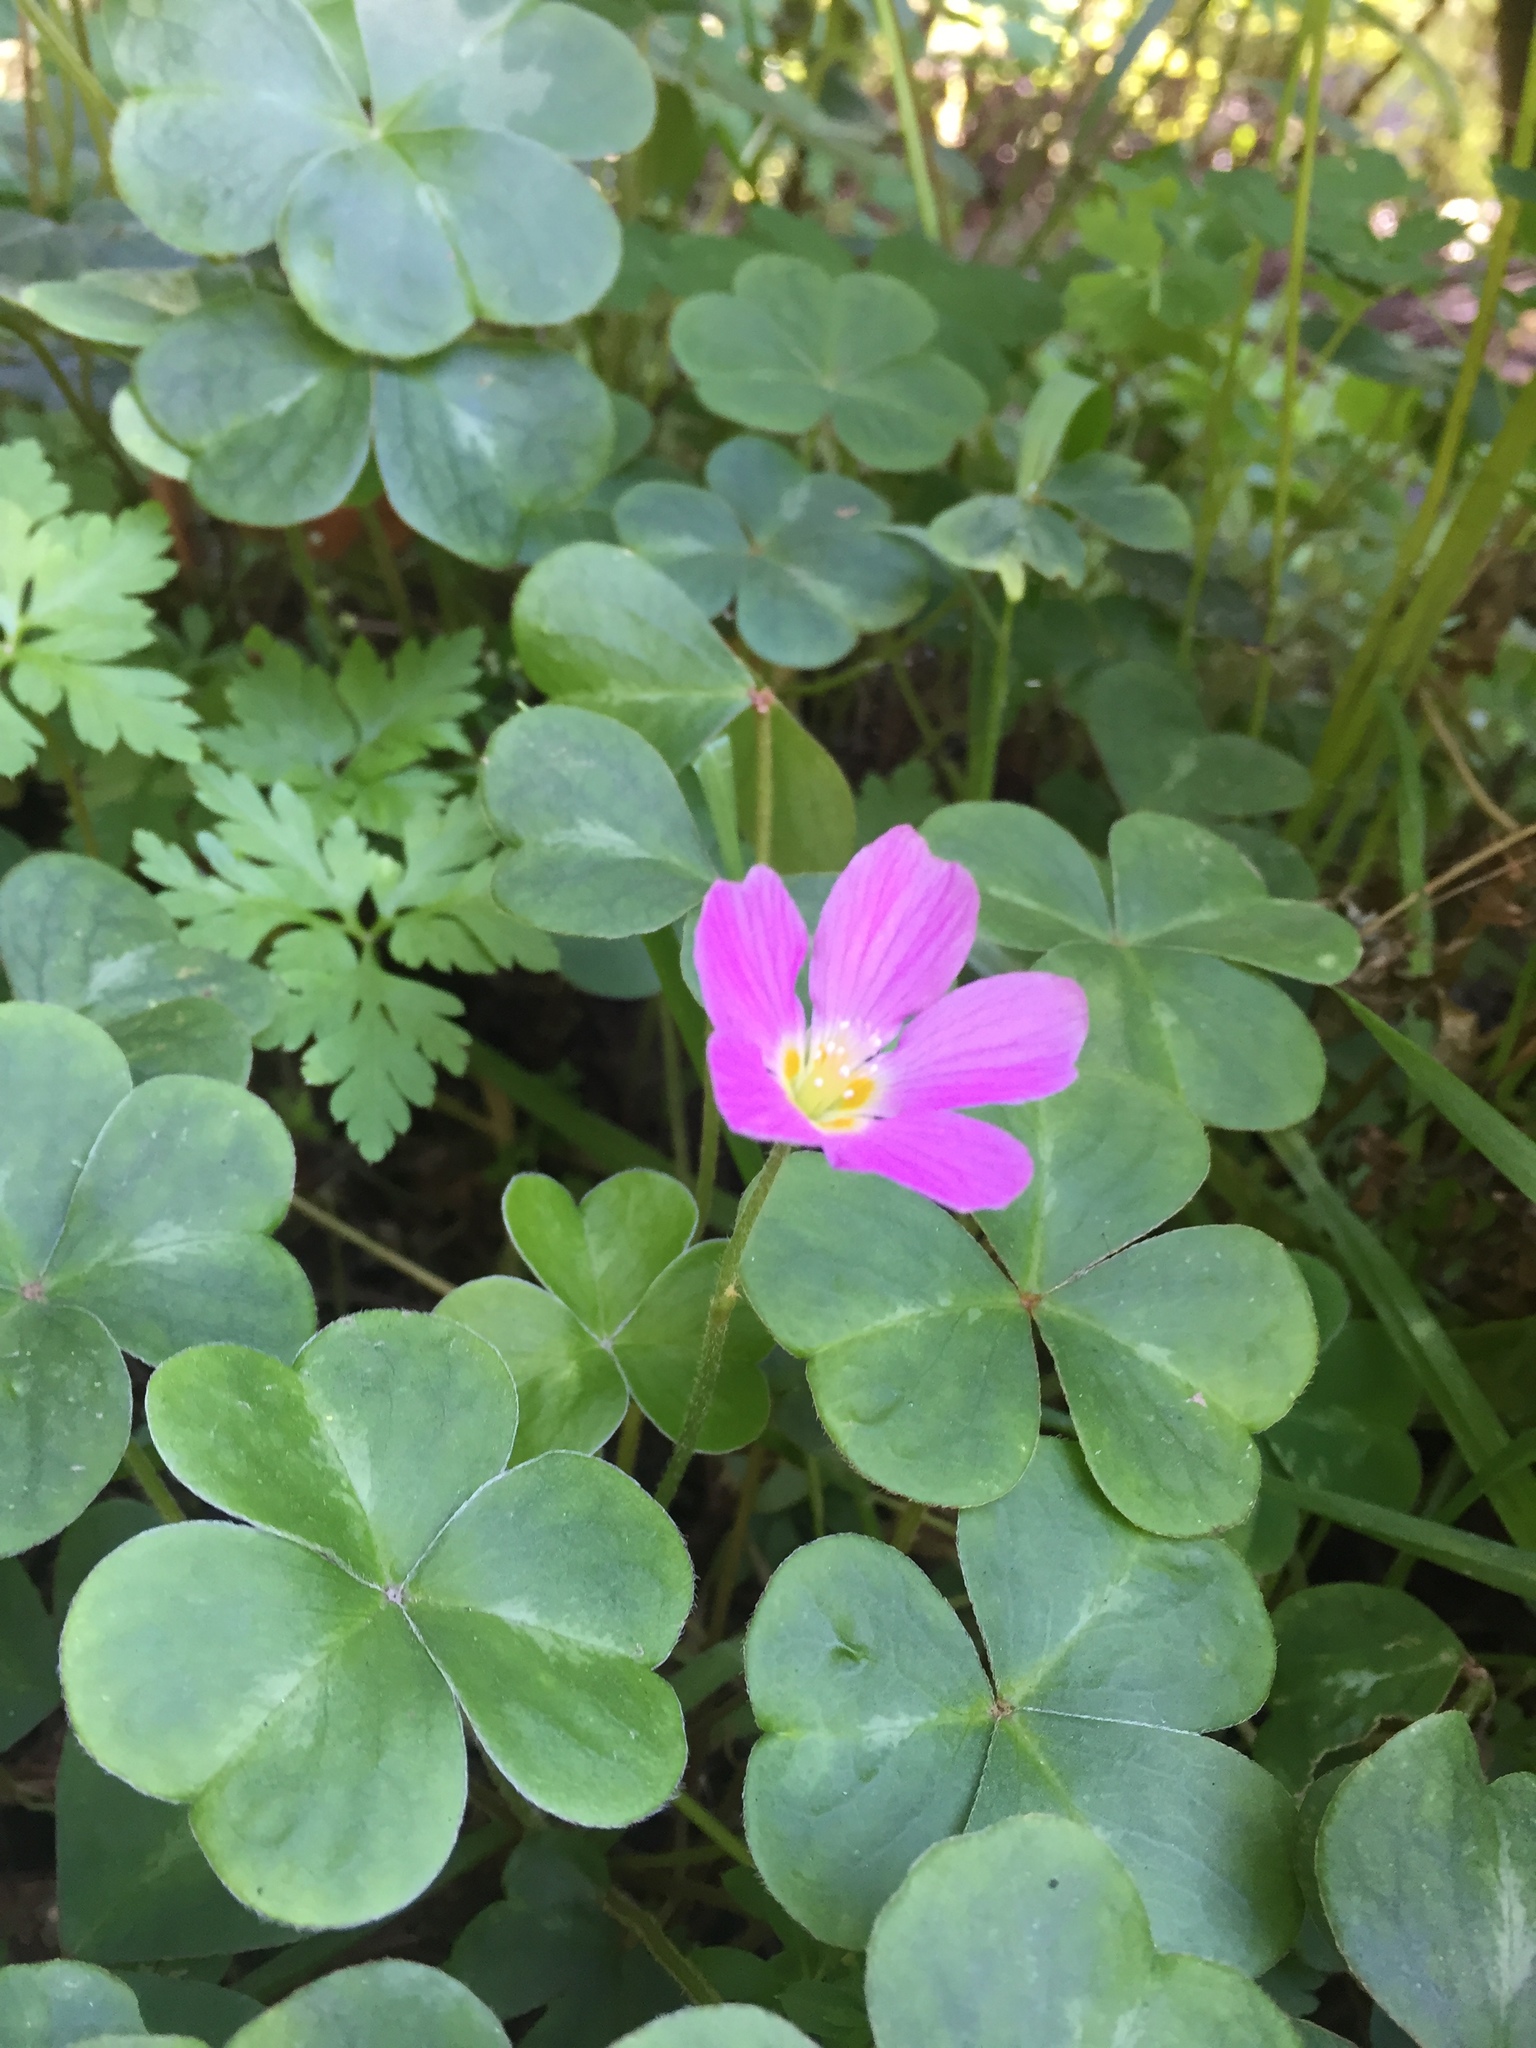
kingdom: Plantae
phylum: Tracheophyta
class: Magnoliopsida
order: Oxalidales
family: Oxalidaceae
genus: Oxalis
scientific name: Oxalis oregana
